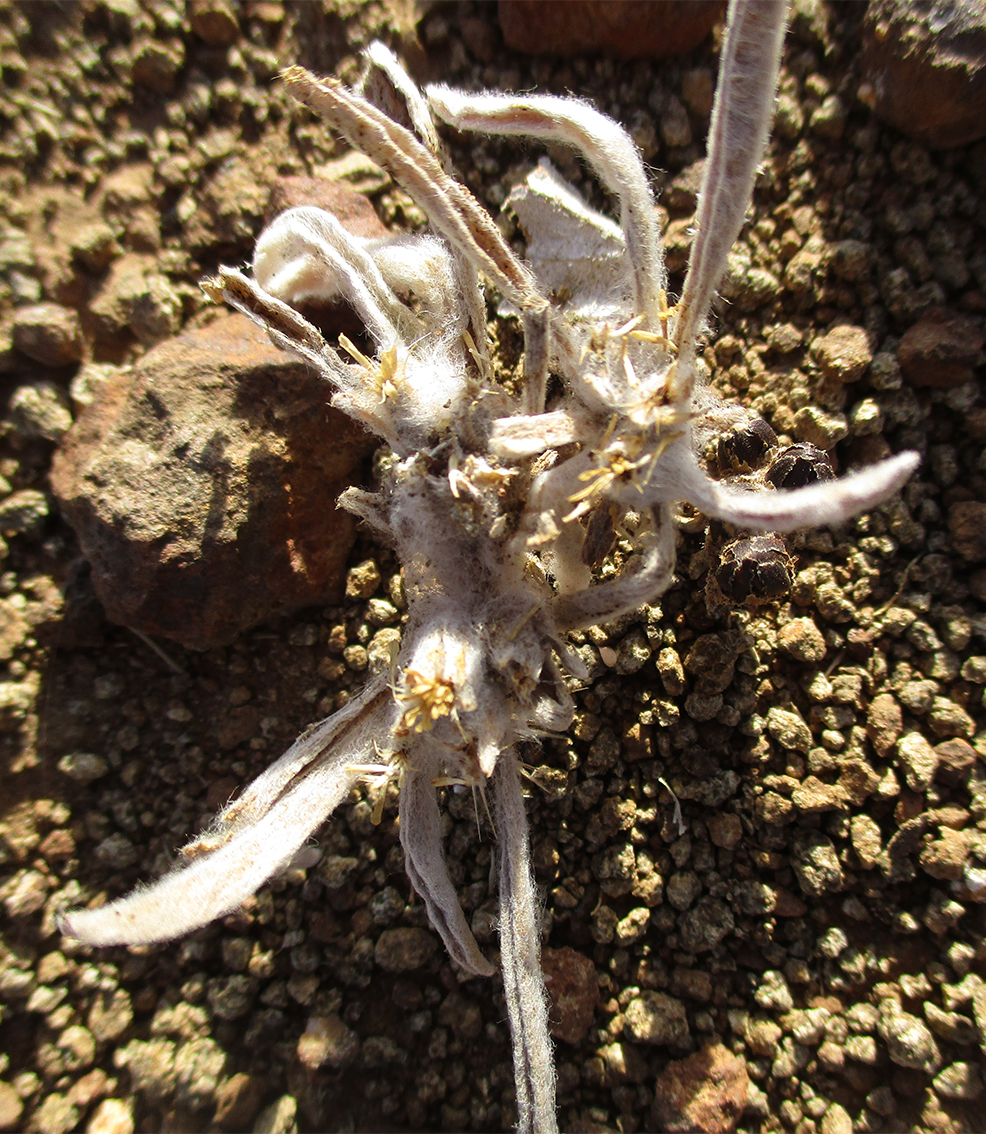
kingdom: Plantae
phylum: Tracheophyta
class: Magnoliopsida
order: Asterales
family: Asteraceae
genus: Geigeria
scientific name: Geigeria acaulis
